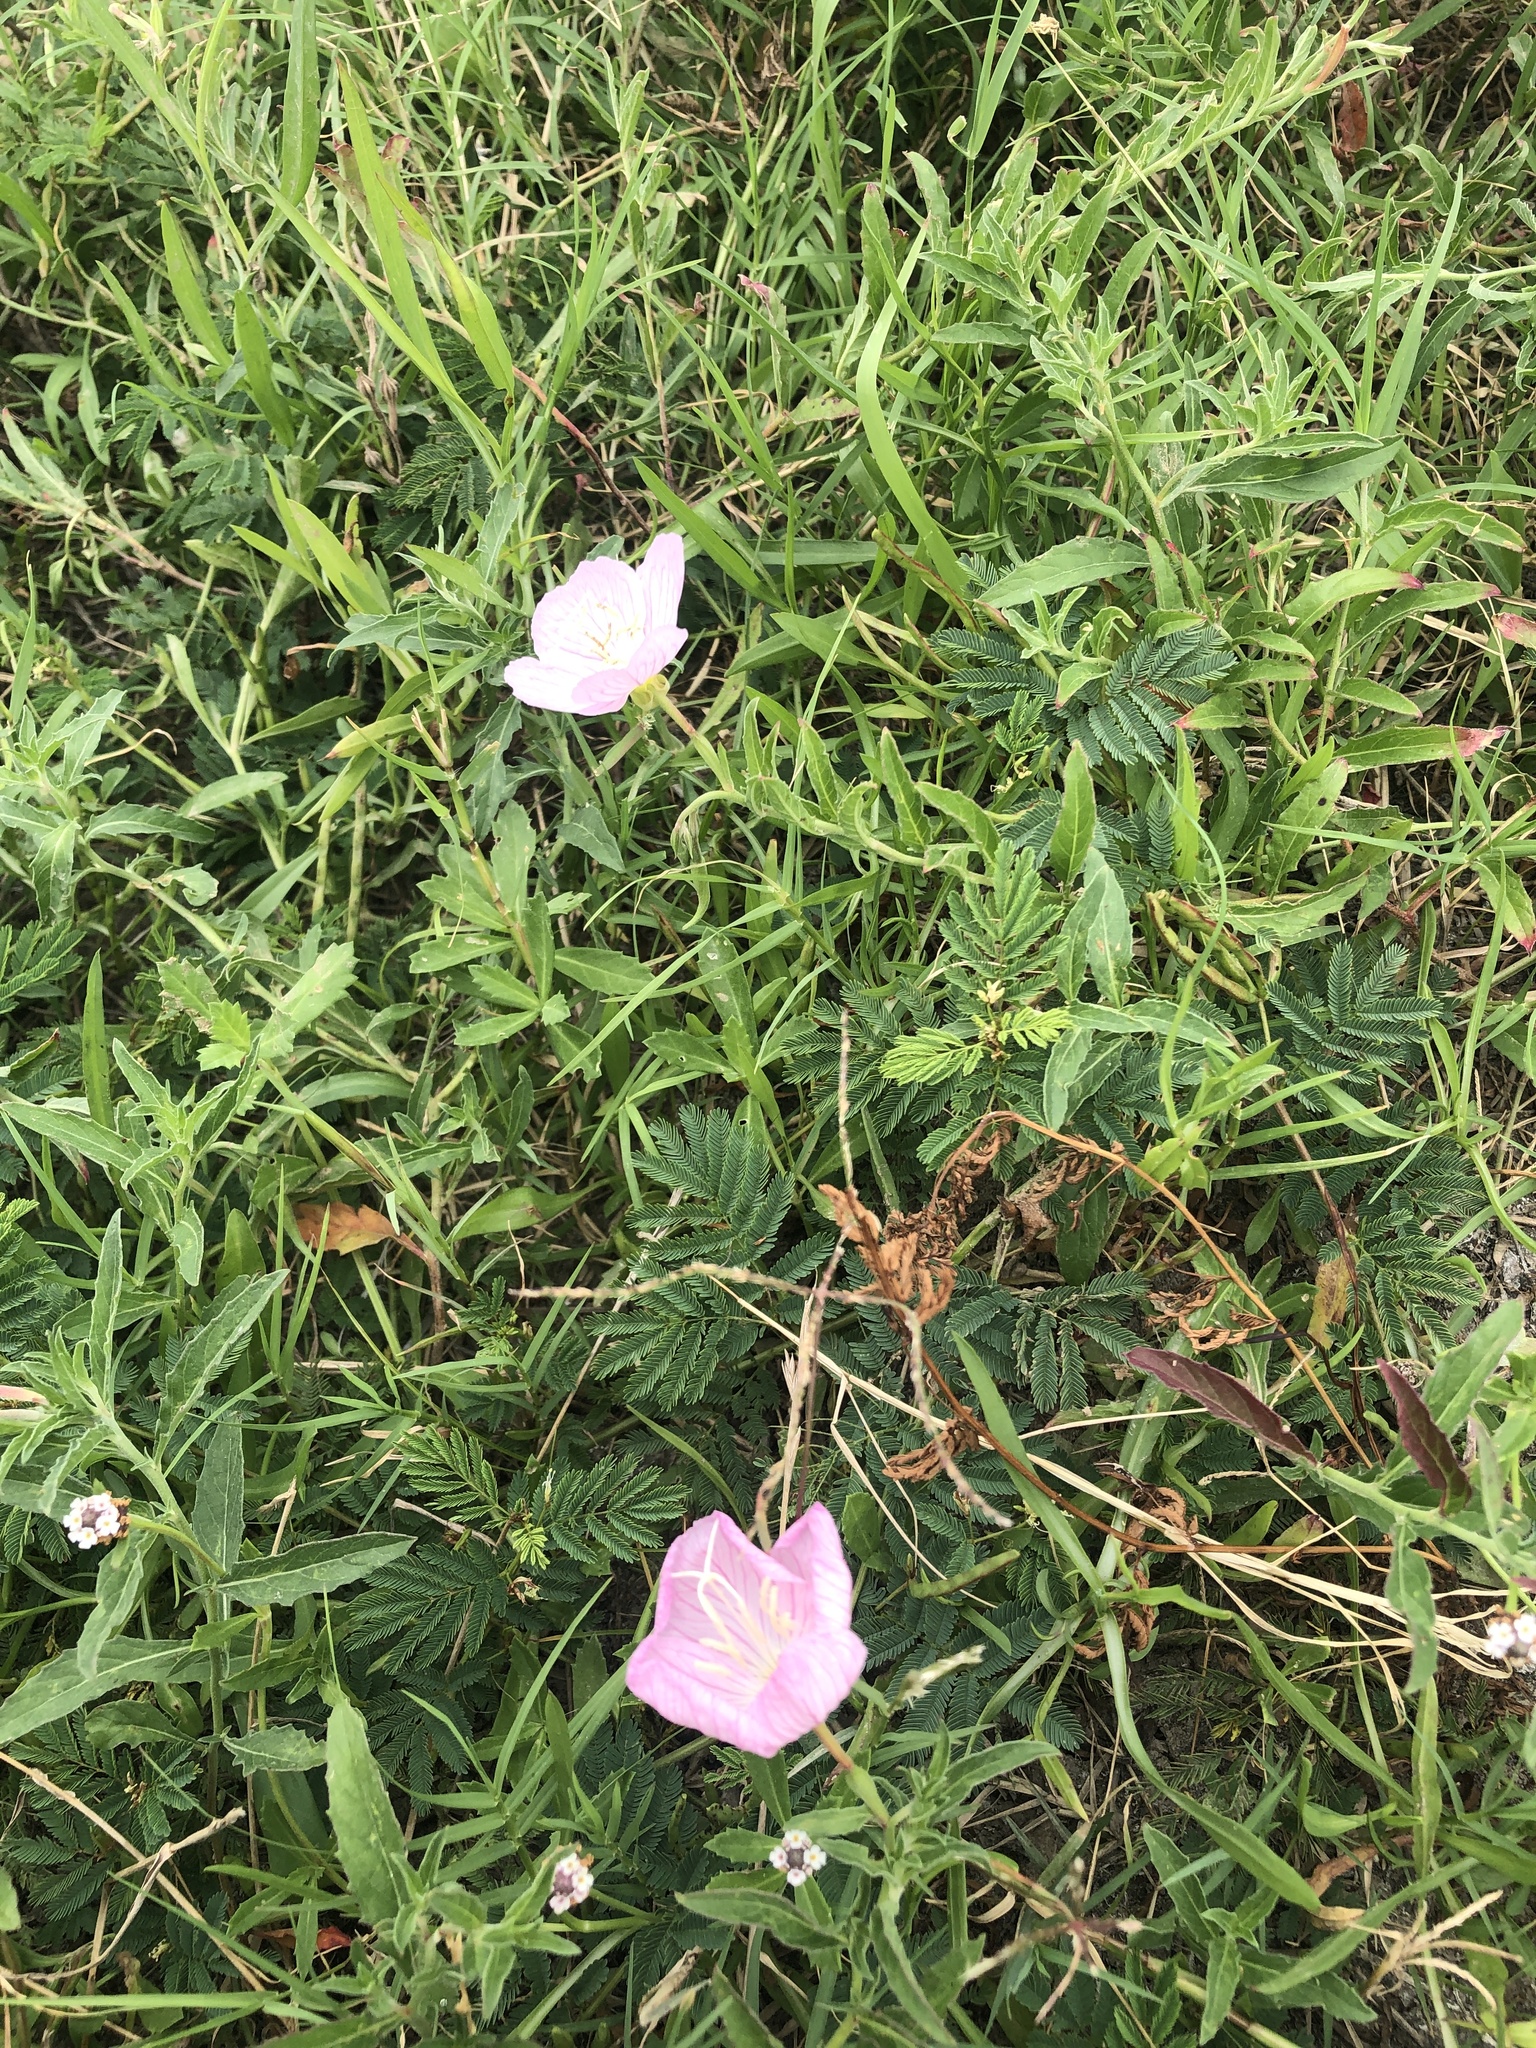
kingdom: Plantae
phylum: Tracheophyta
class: Magnoliopsida
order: Myrtales
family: Onagraceae
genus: Oenothera
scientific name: Oenothera speciosa
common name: White evening-primrose
